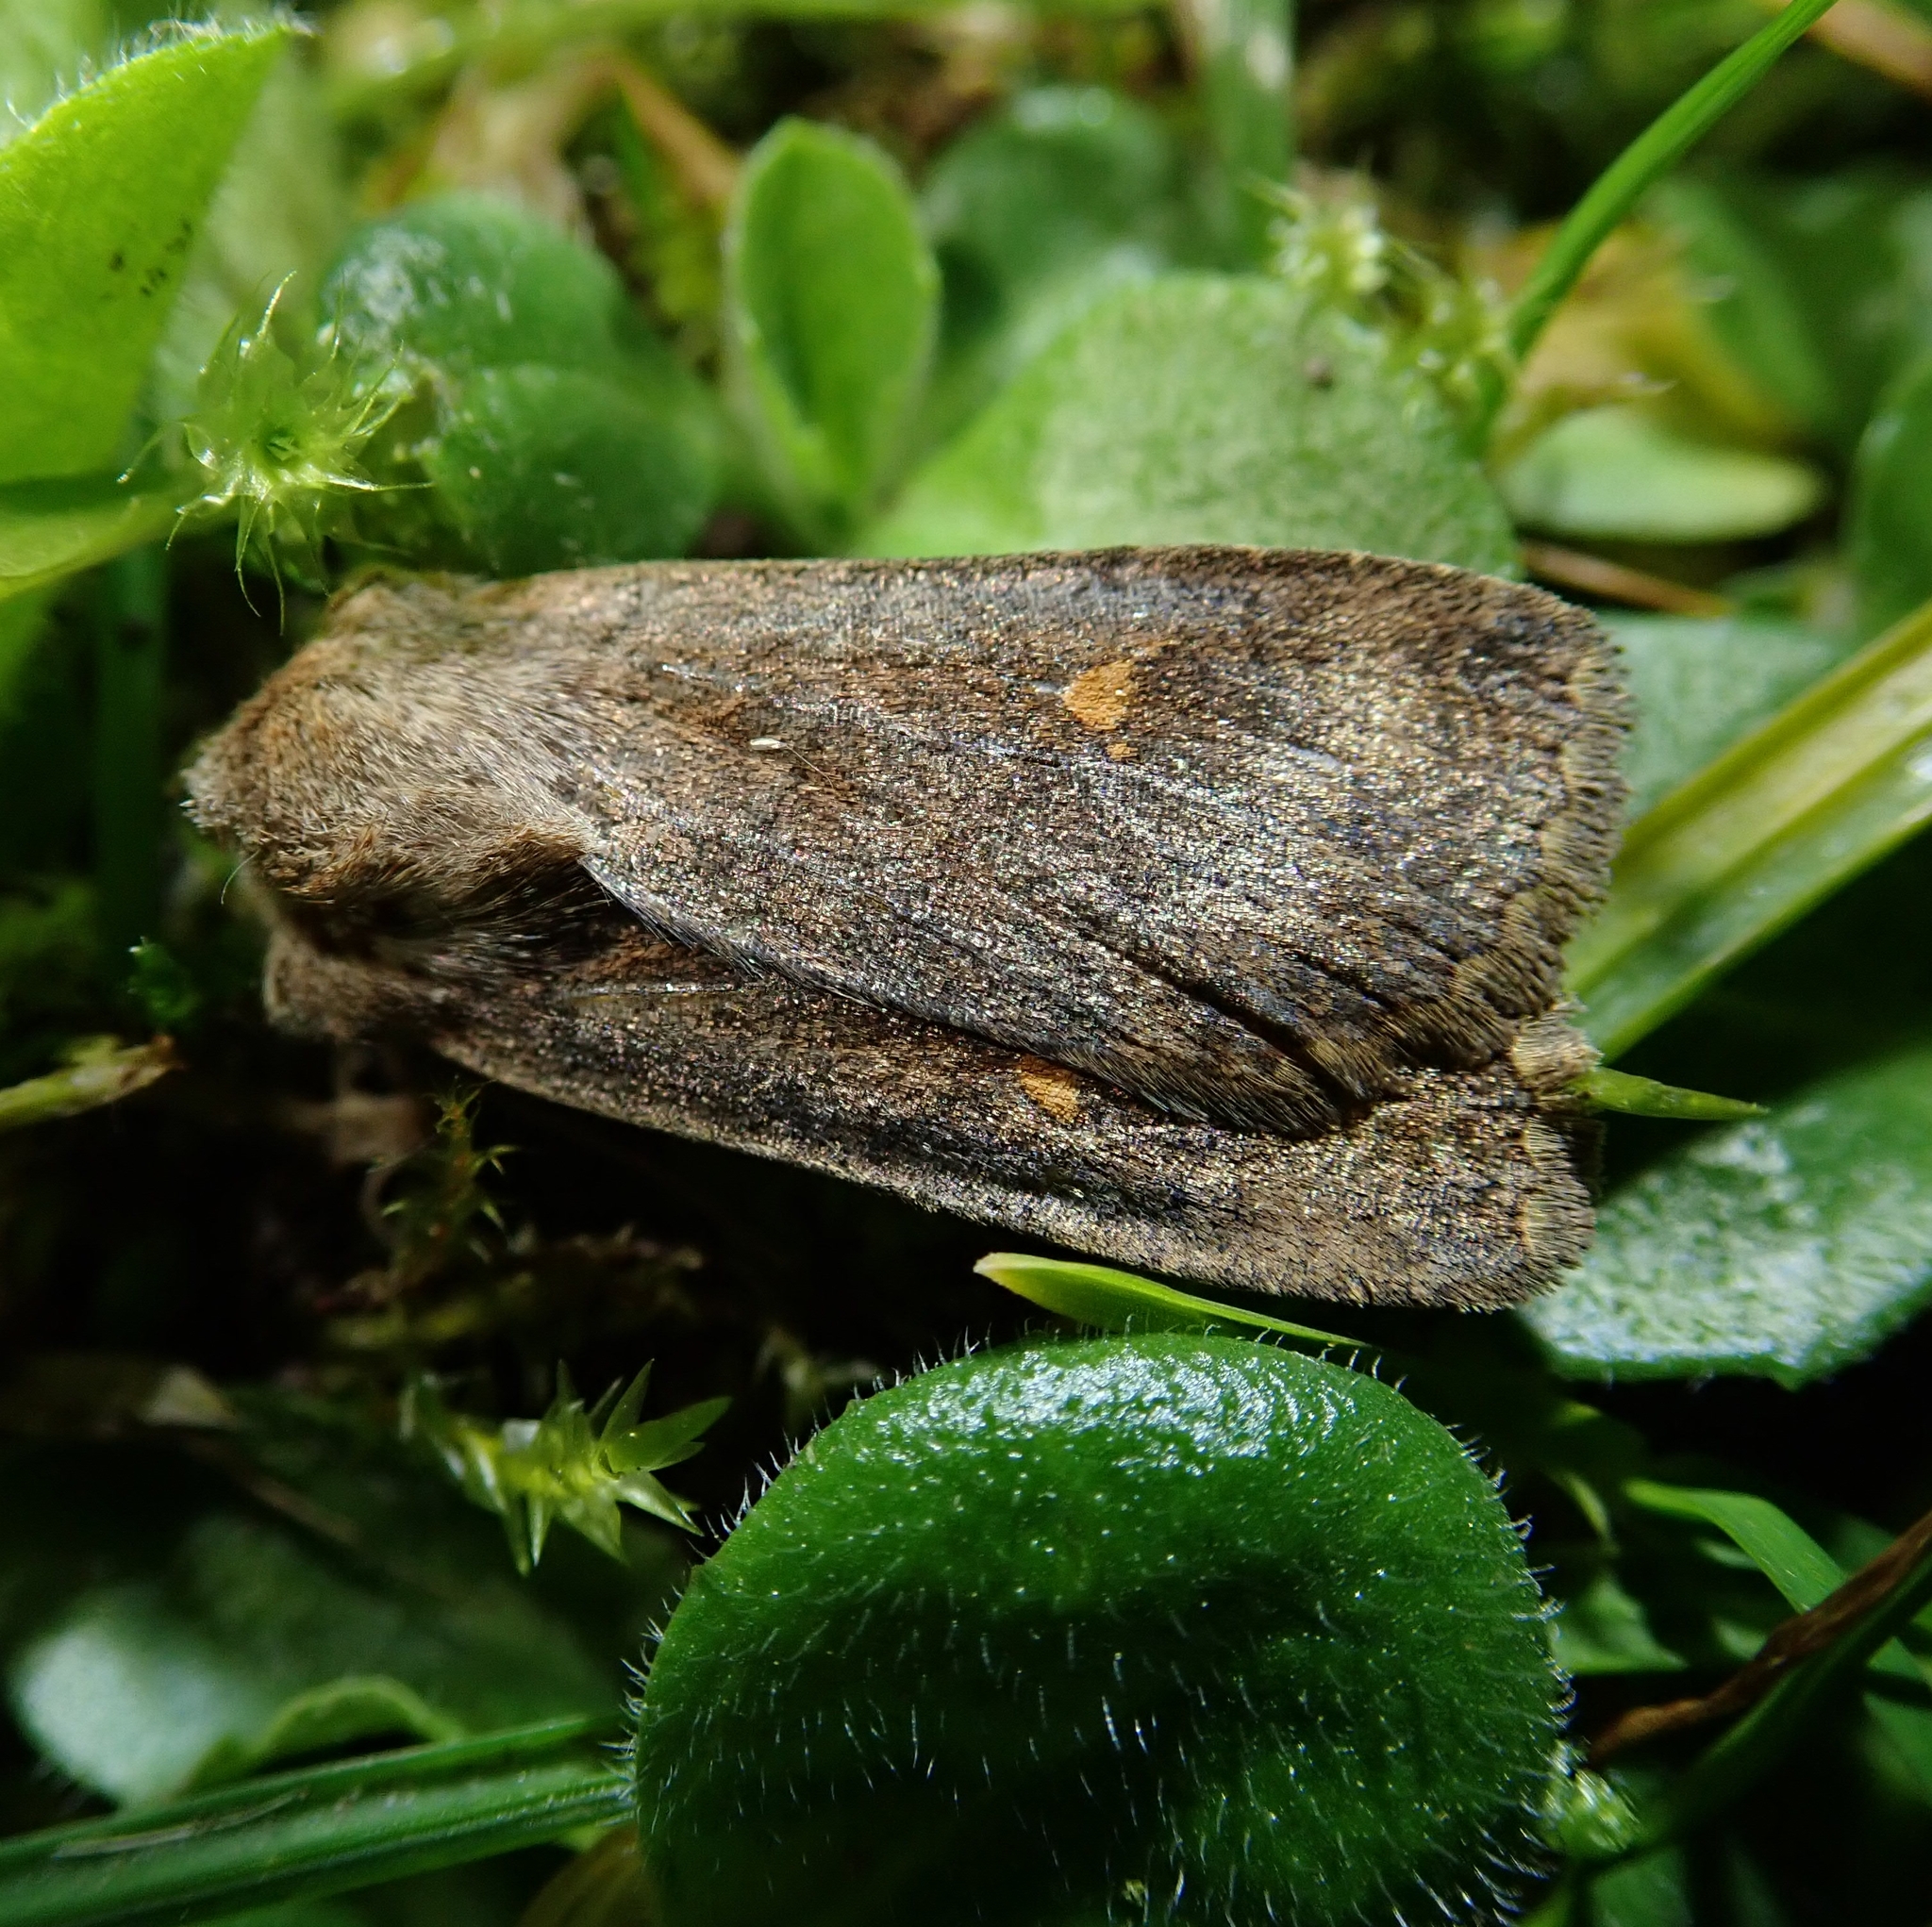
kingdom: Animalia
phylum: Arthropoda
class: Insecta
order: Lepidoptera
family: Noctuidae
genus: Eupsilia
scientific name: Eupsilia transversa
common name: Satellite
